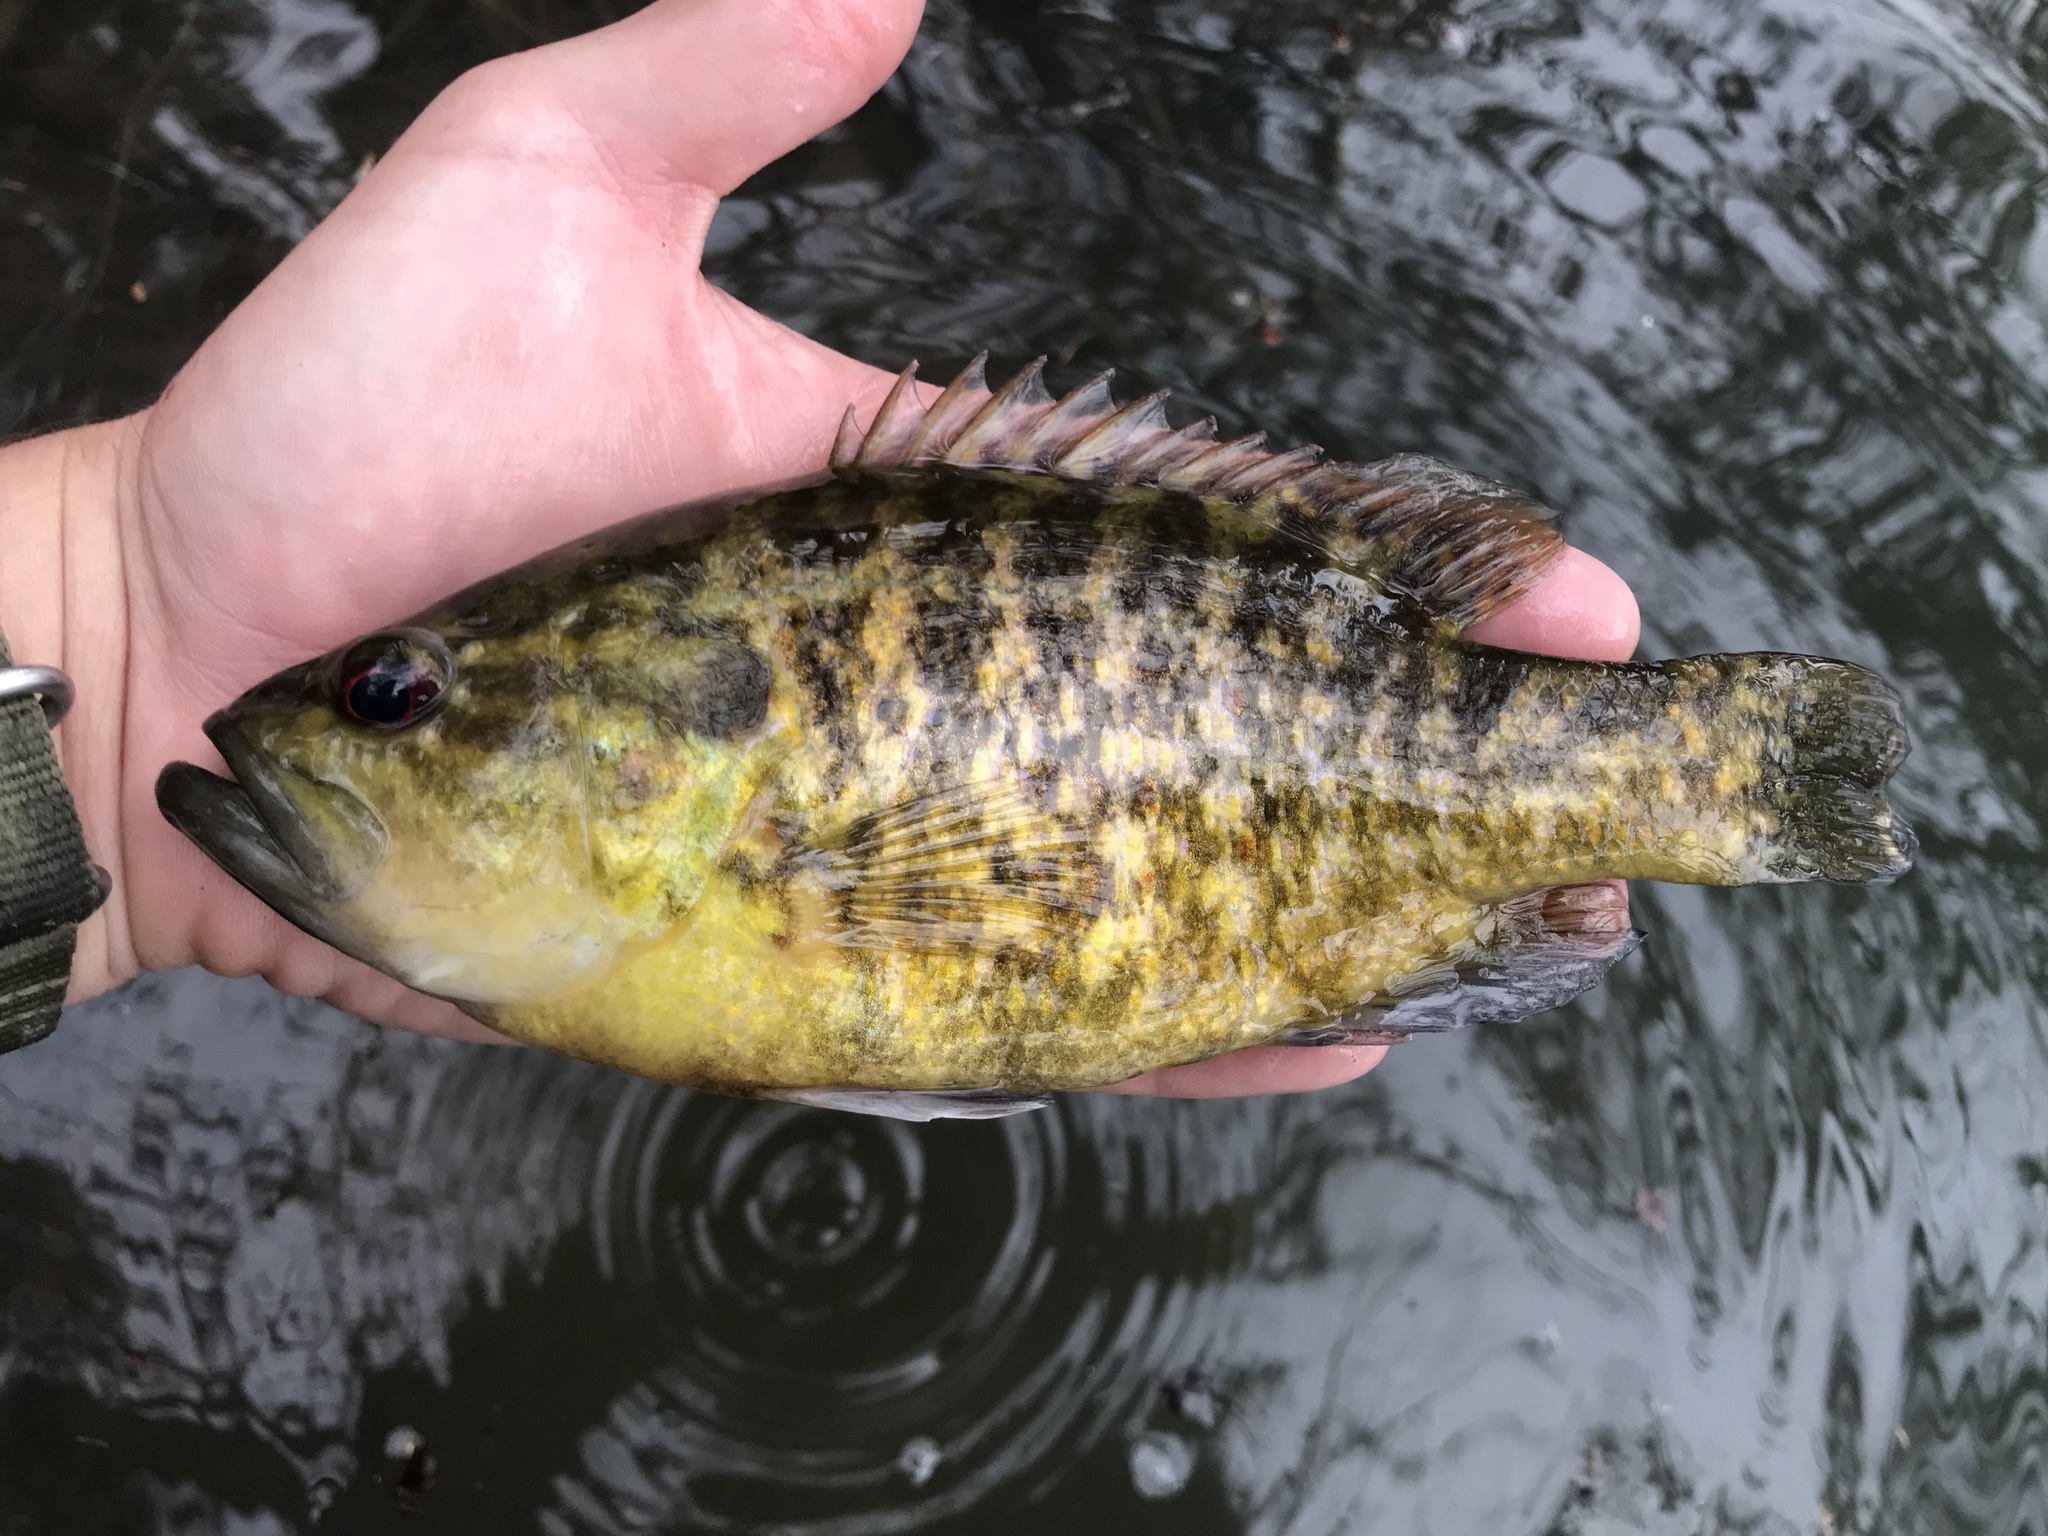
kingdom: Animalia
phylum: Chordata
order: Perciformes
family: Centrarchidae
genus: Lepomis
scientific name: Lepomis gulosus
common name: Warmouth
